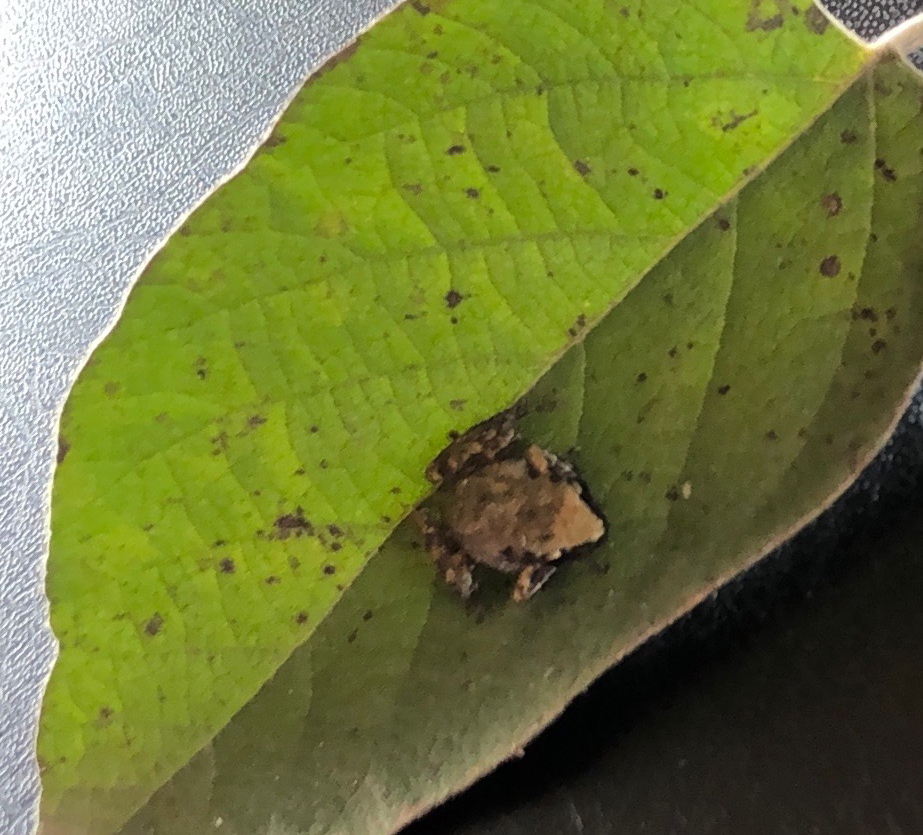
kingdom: Animalia
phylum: Chordata
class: Amphibia
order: Anura
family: Eleutherodactylidae
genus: Eleutherodactylus
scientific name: Eleutherodactylus campi
